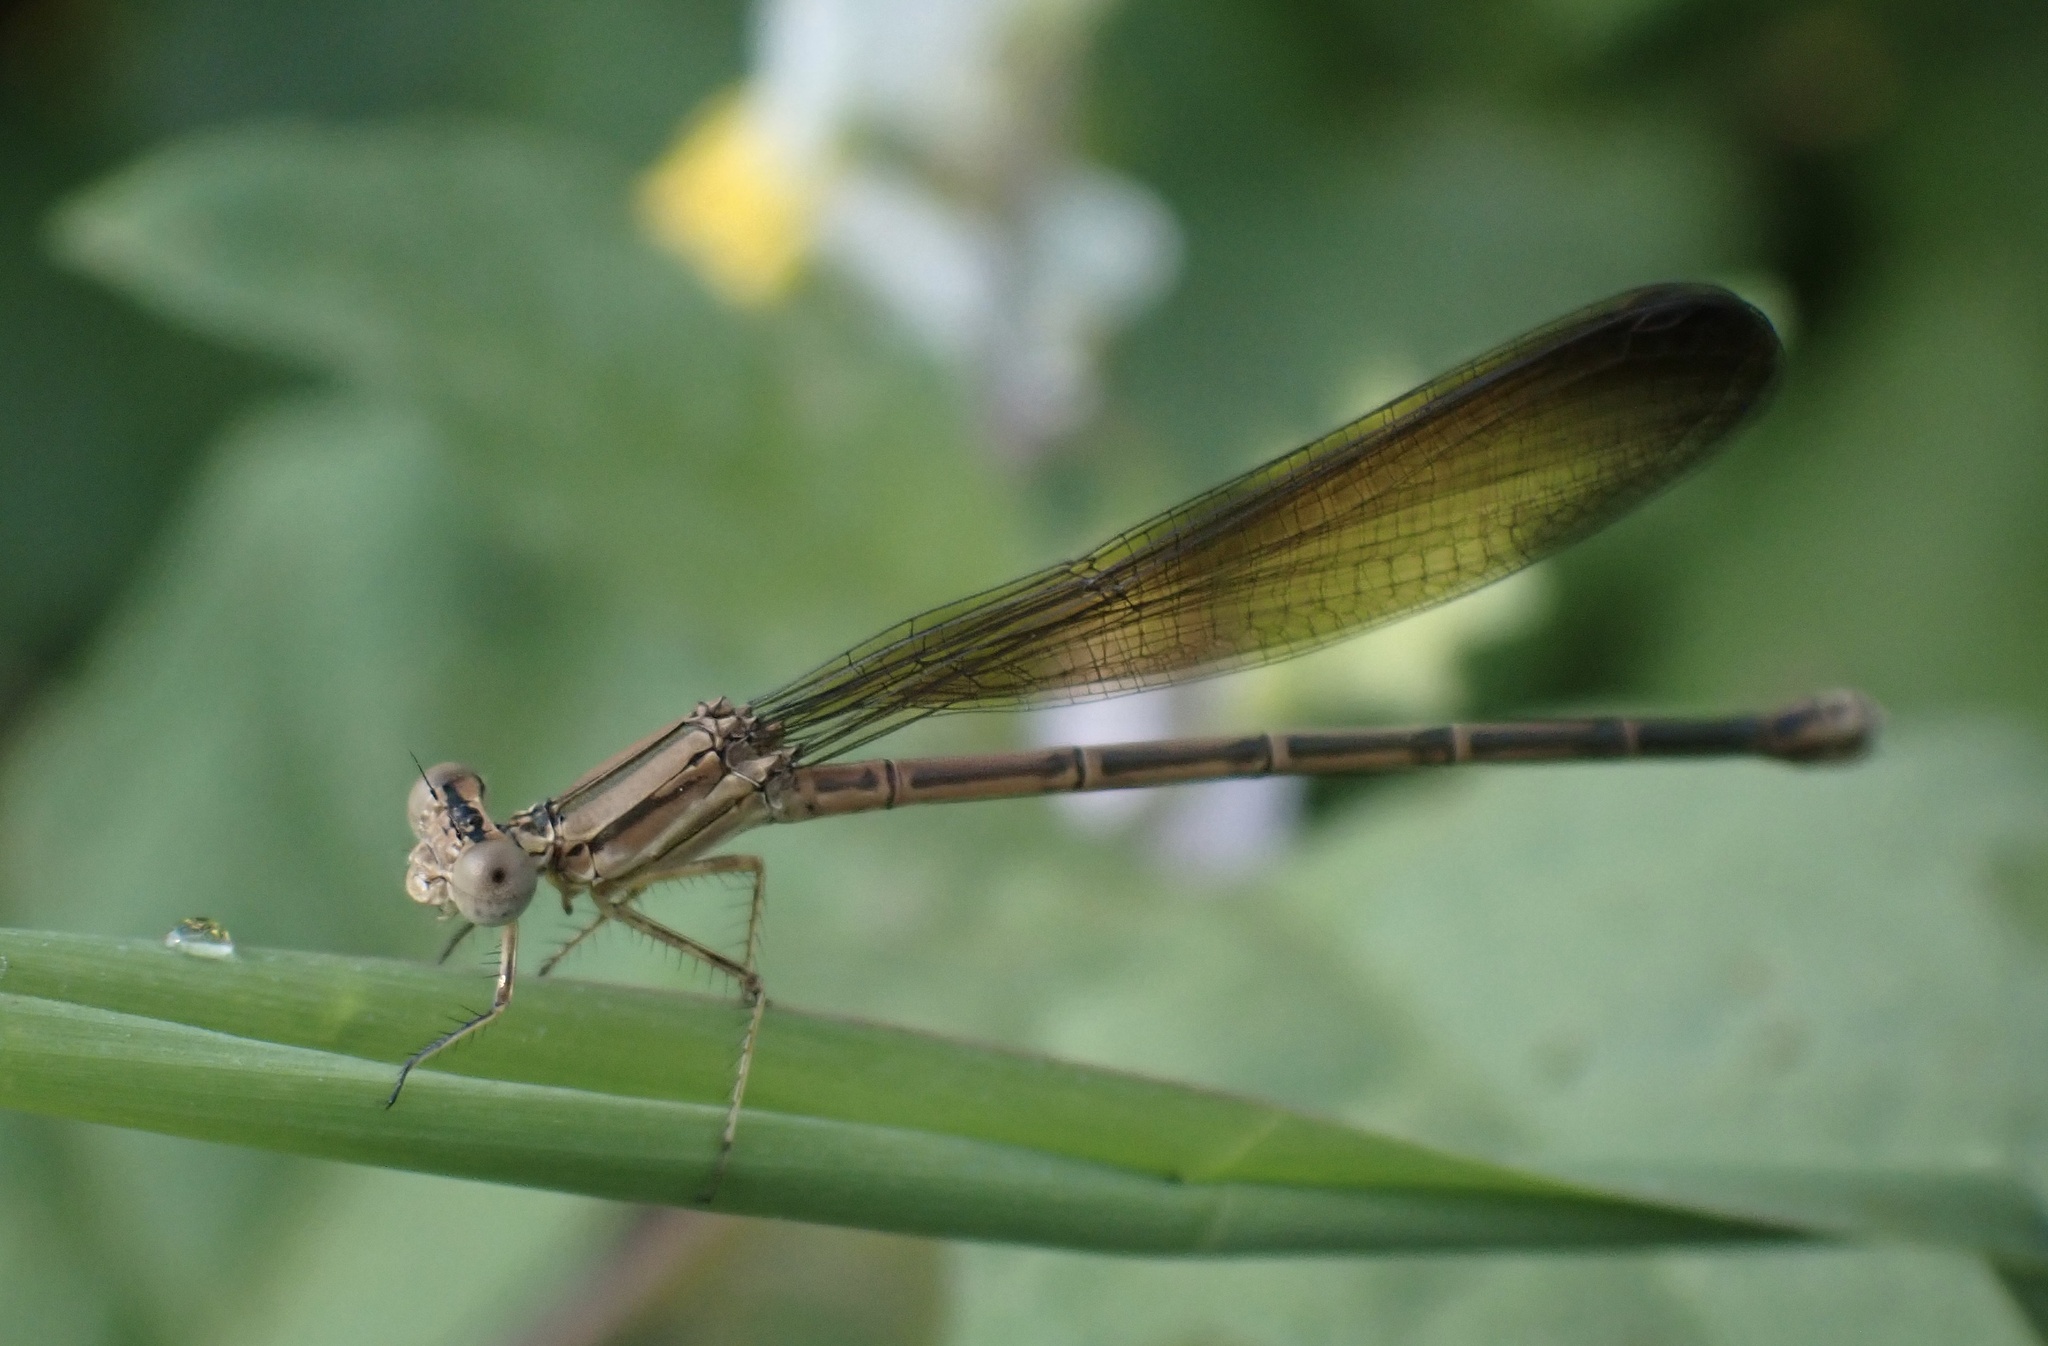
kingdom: Animalia
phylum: Arthropoda
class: Insecta
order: Odonata
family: Coenagrionidae
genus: Argia
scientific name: Argia fumipennis
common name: Variable dancer
